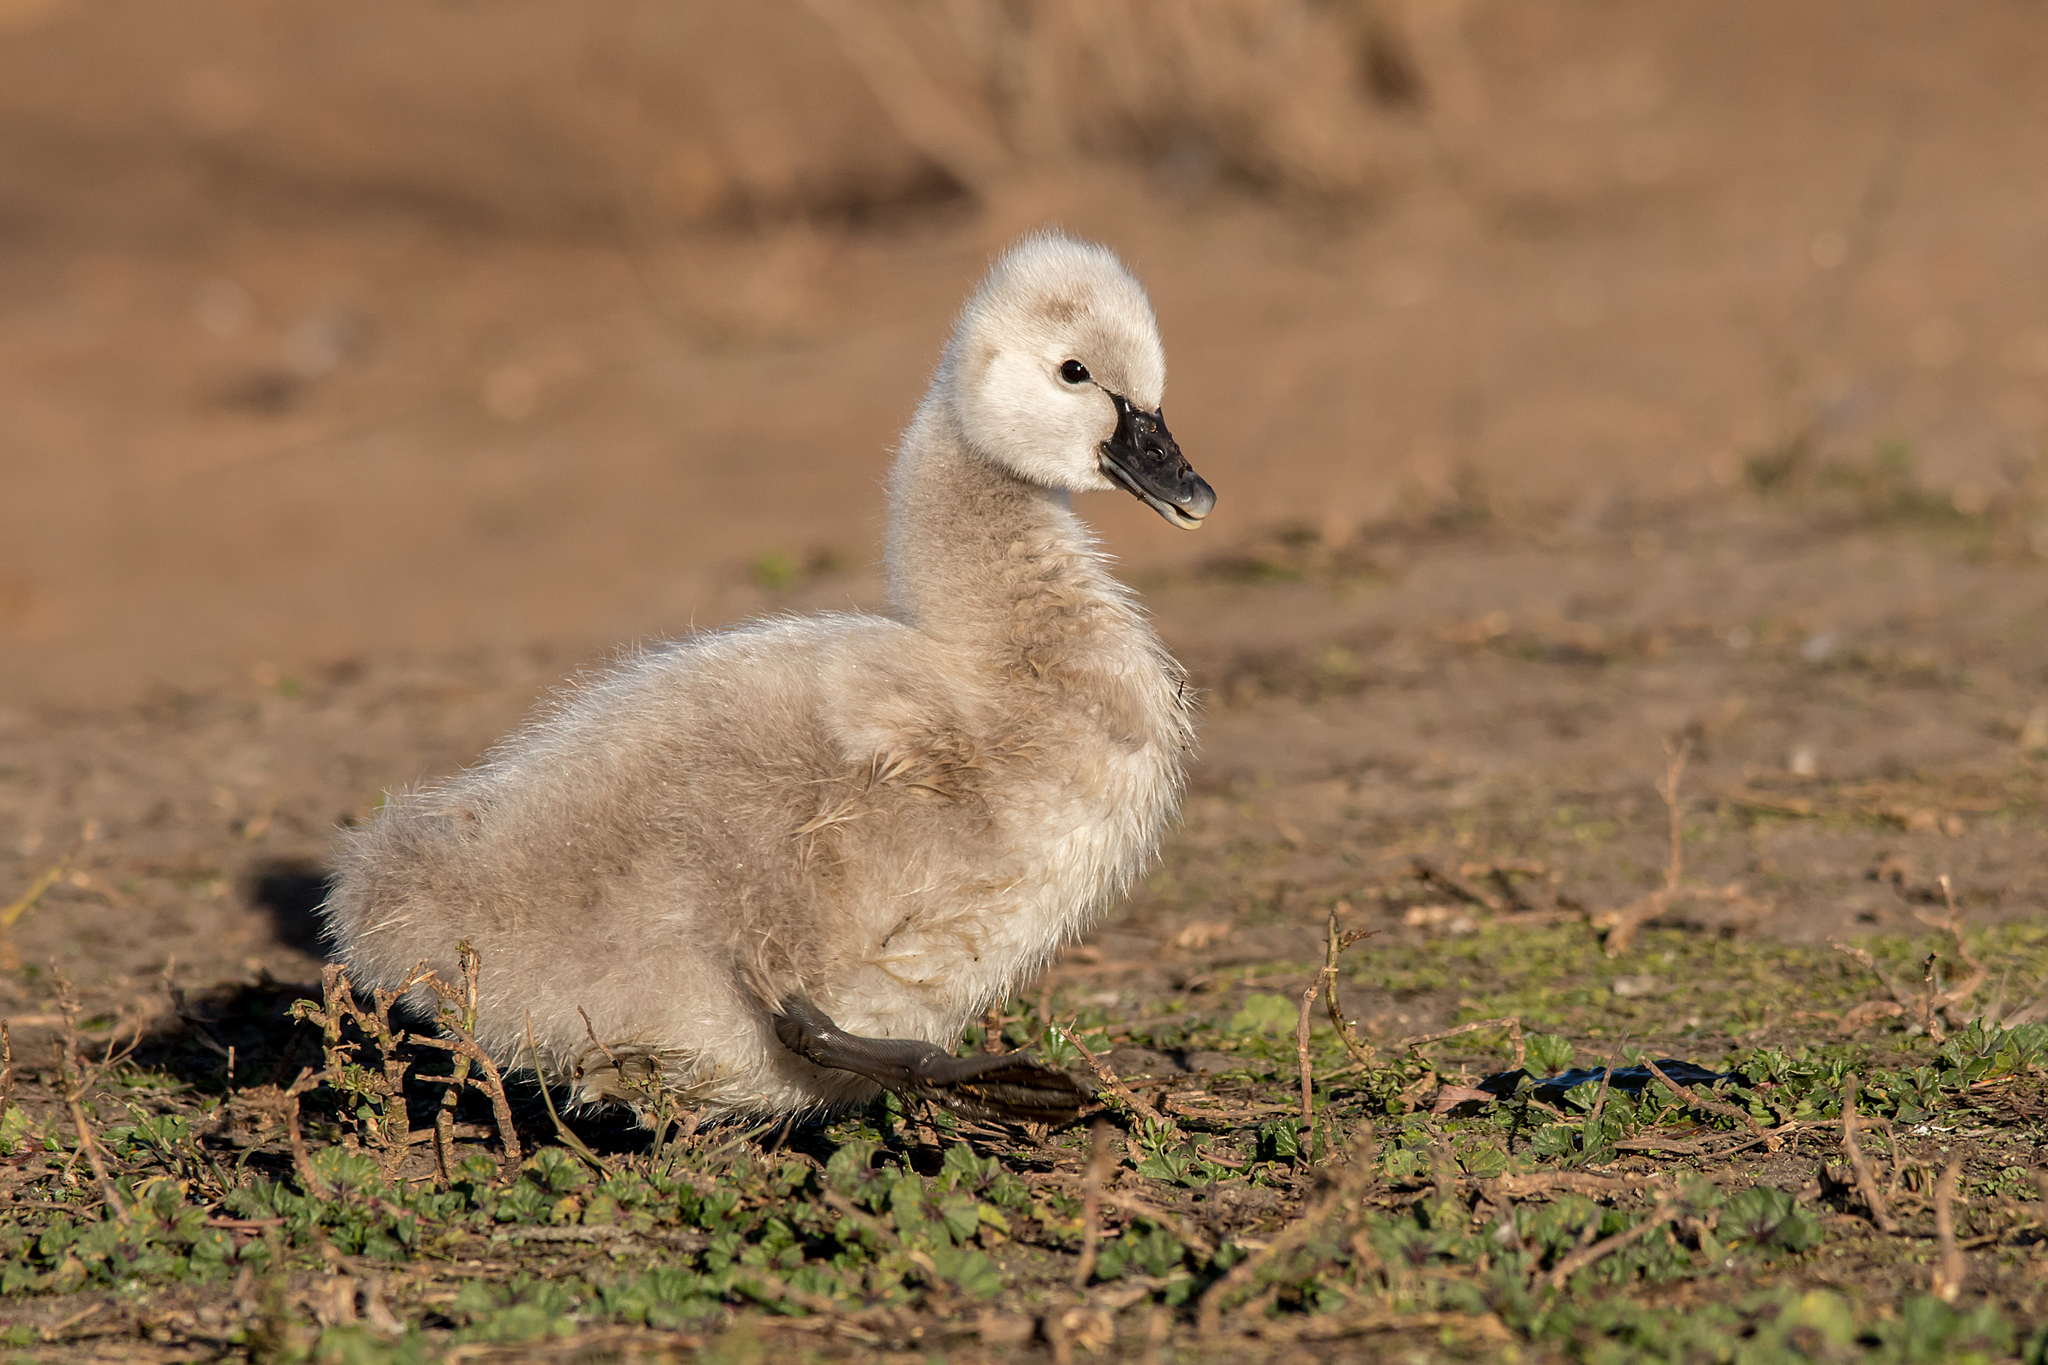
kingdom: Animalia
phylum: Chordata
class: Aves
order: Anseriformes
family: Anatidae
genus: Cygnus
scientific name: Cygnus atratus
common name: Black swan
